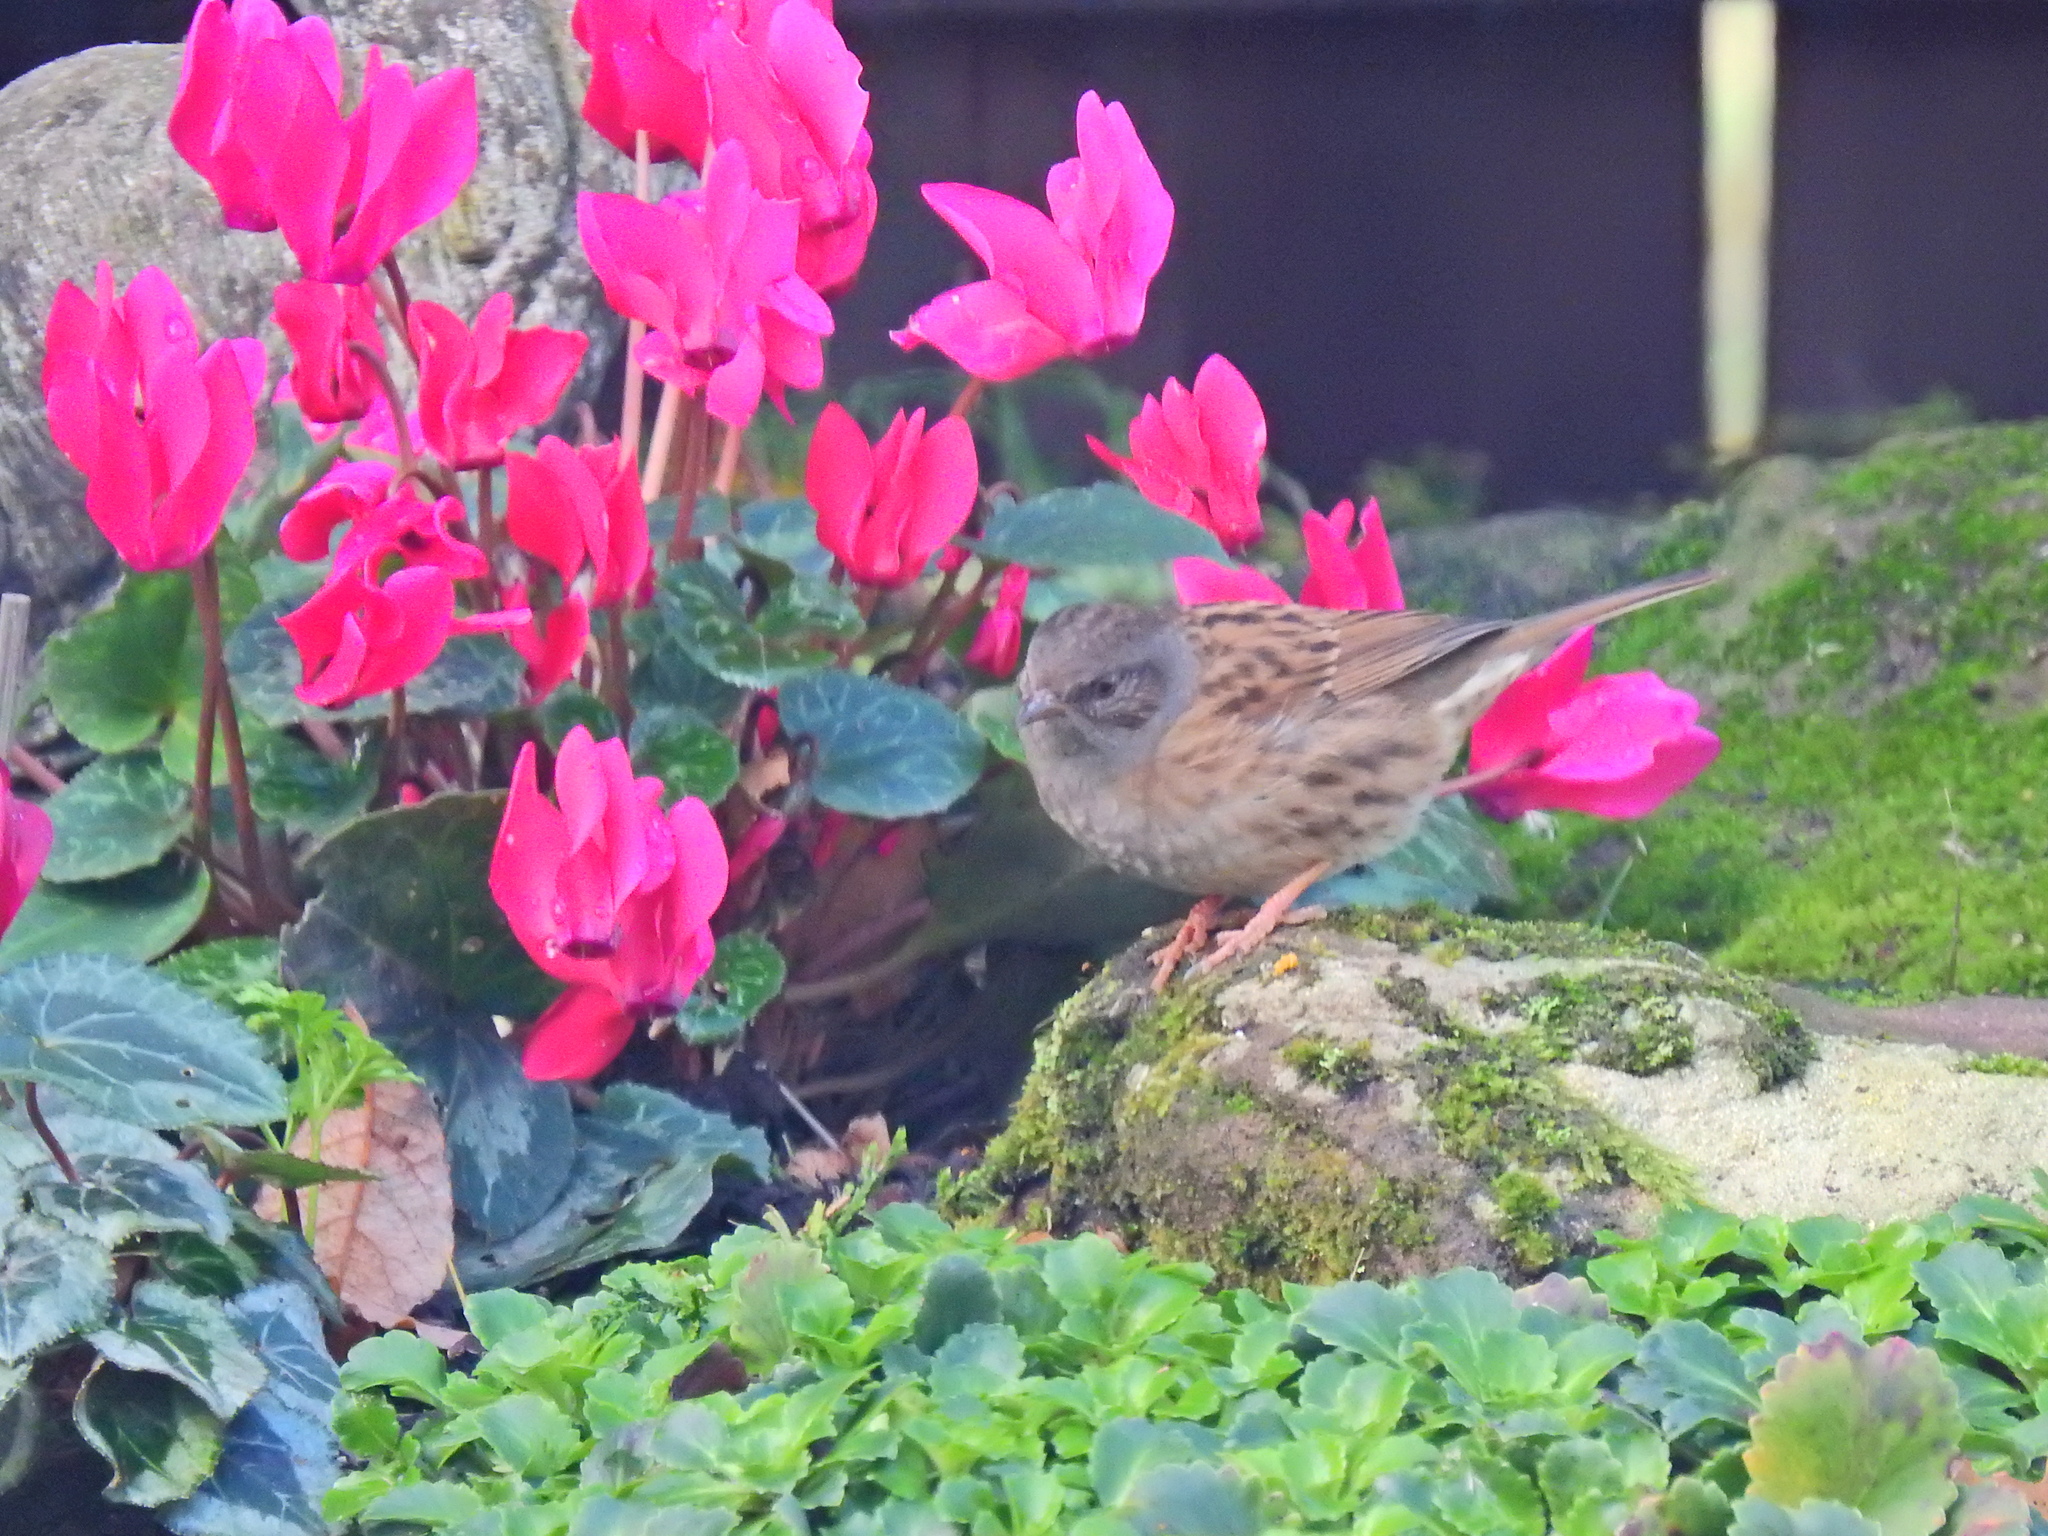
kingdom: Animalia
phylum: Chordata
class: Aves
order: Passeriformes
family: Prunellidae
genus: Prunella
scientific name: Prunella modularis
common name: Dunnock
